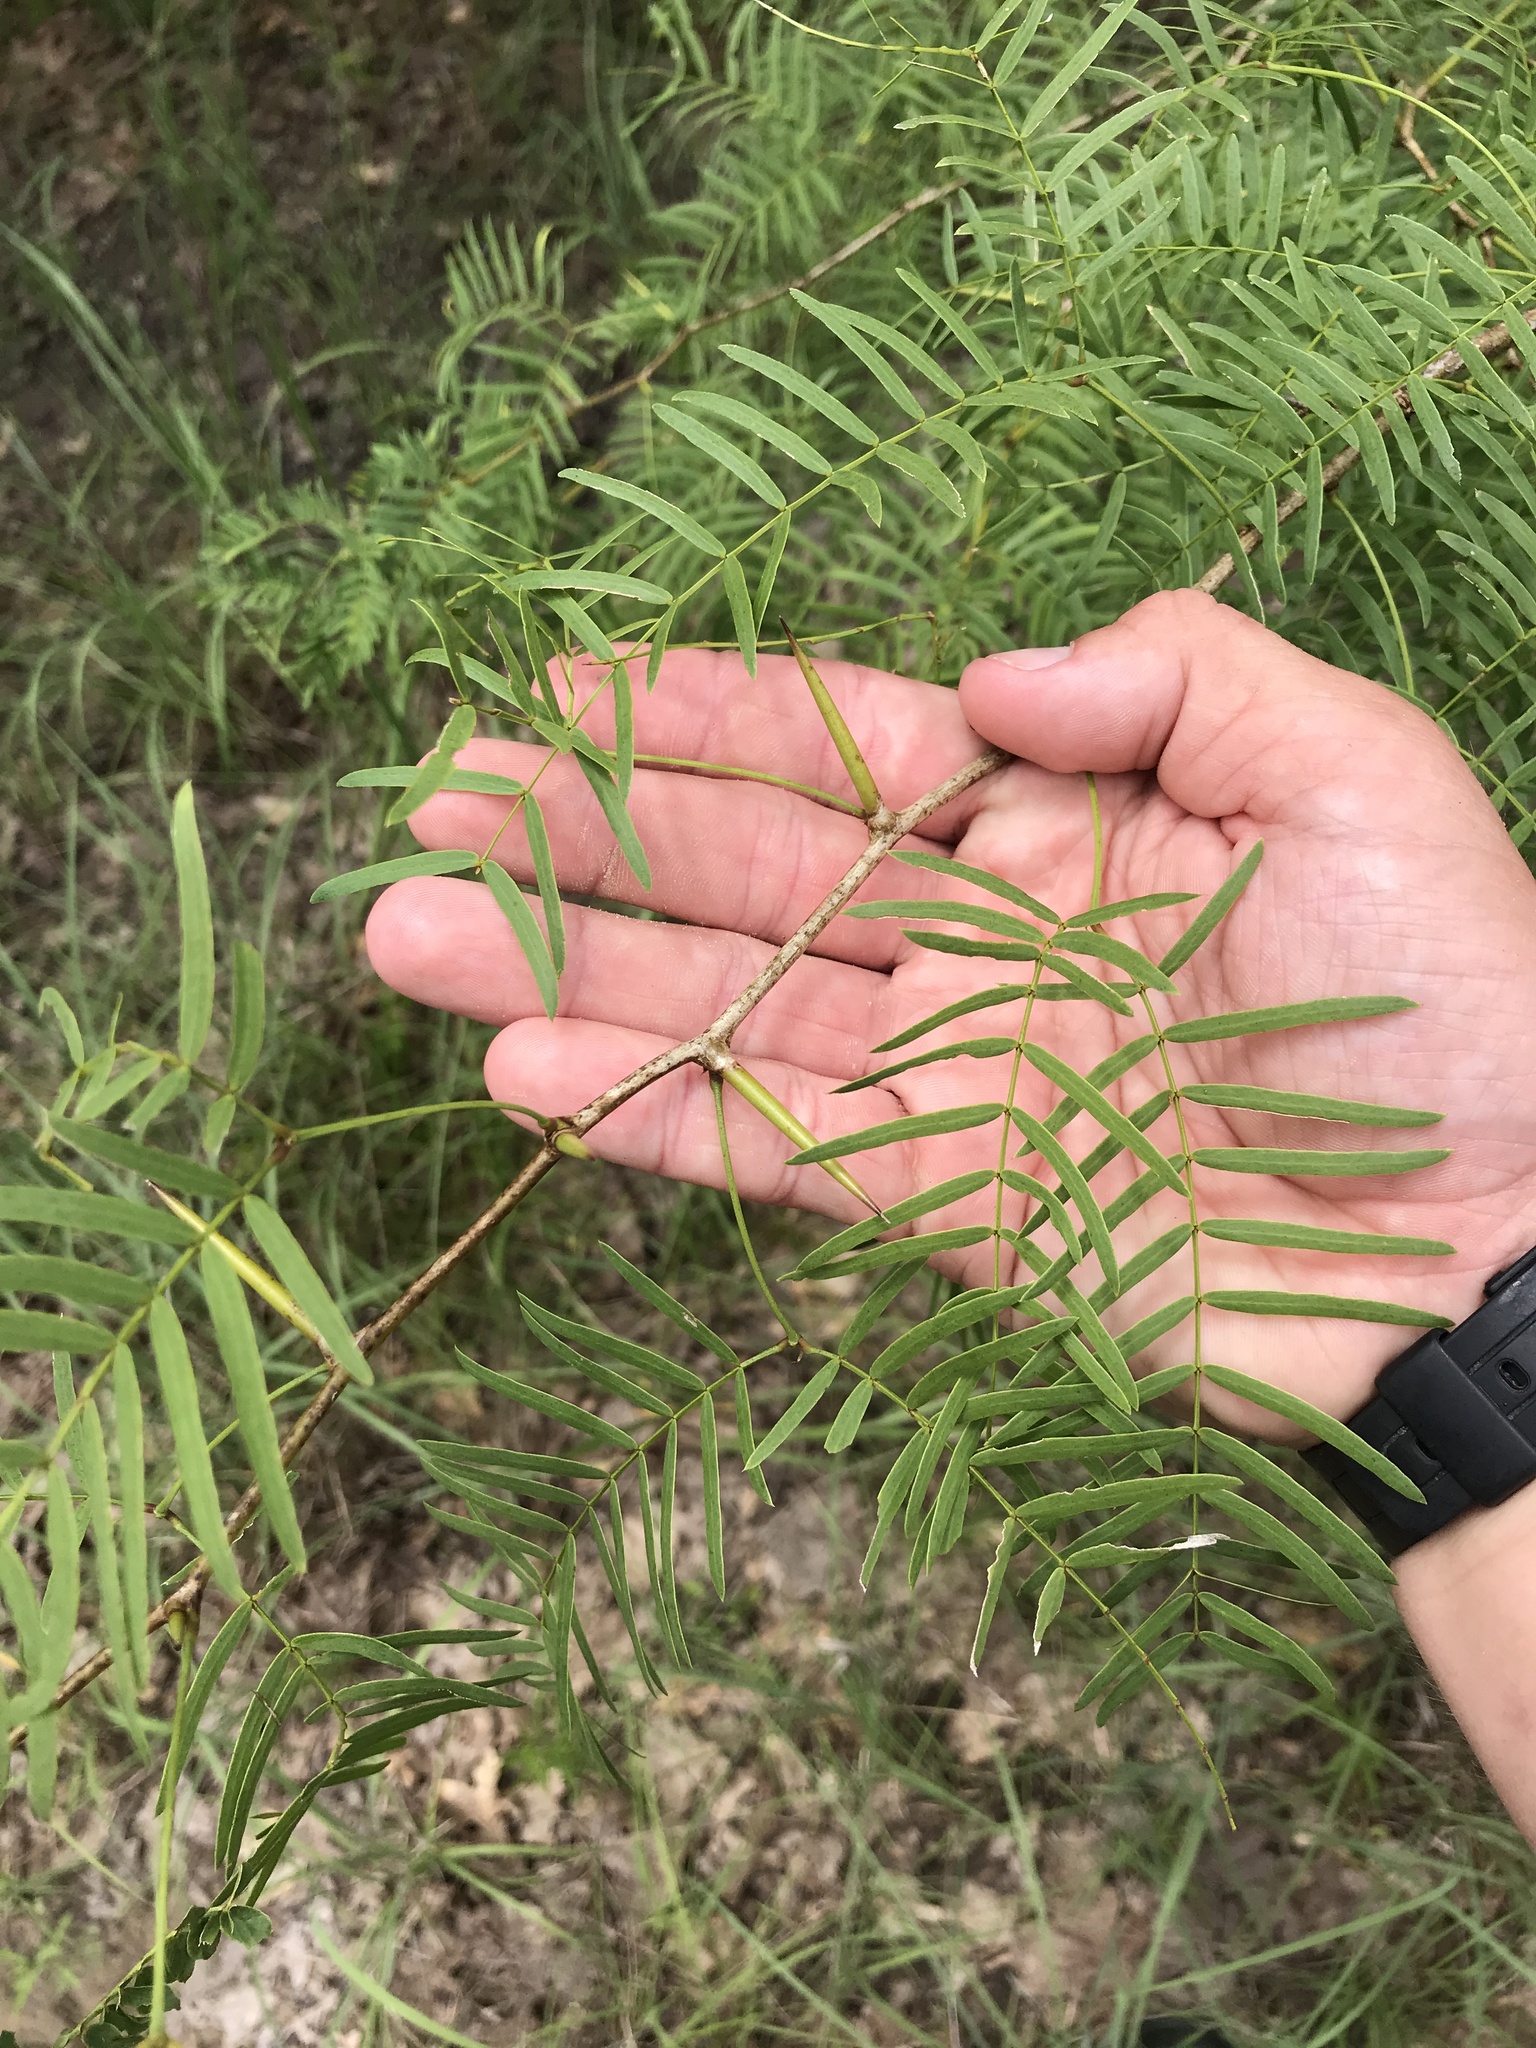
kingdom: Plantae
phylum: Tracheophyta
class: Magnoliopsida
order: Fabales
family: Fabaceae
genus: Prosopis
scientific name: Prosopis glandulosa
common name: Honey mesquite
